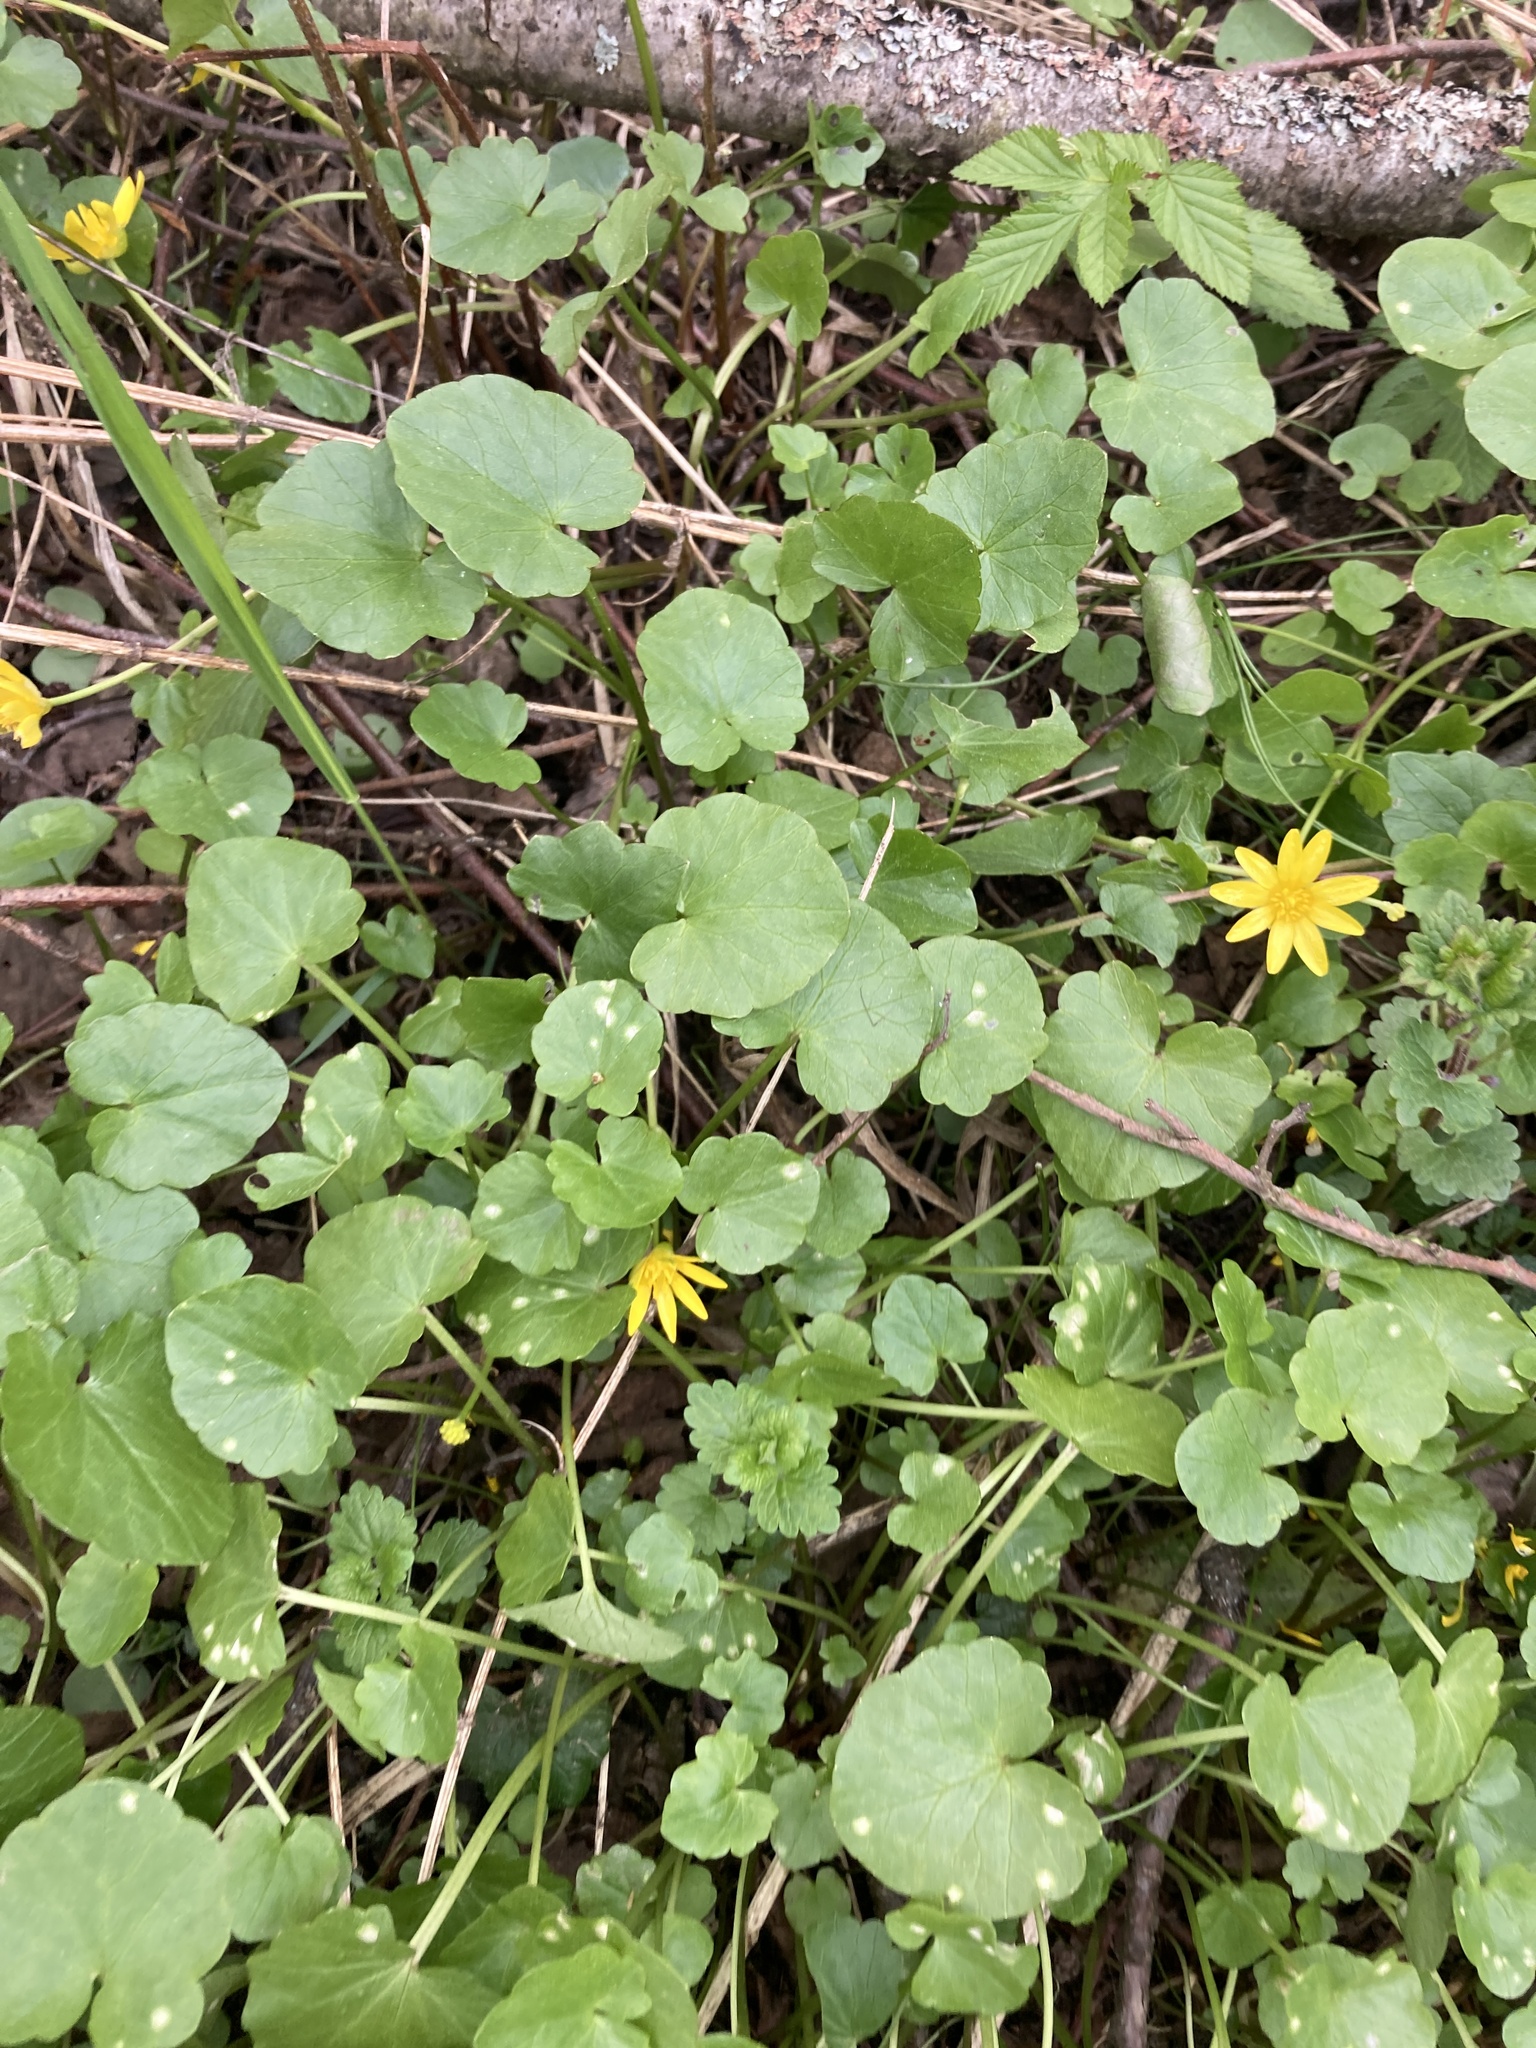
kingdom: Plantae
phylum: Tracheophyta
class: Magnoliopsida
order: Ranunculales
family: Ranunculaceae
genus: Ficaria
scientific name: Ficaria verna
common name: Lesser celandine
